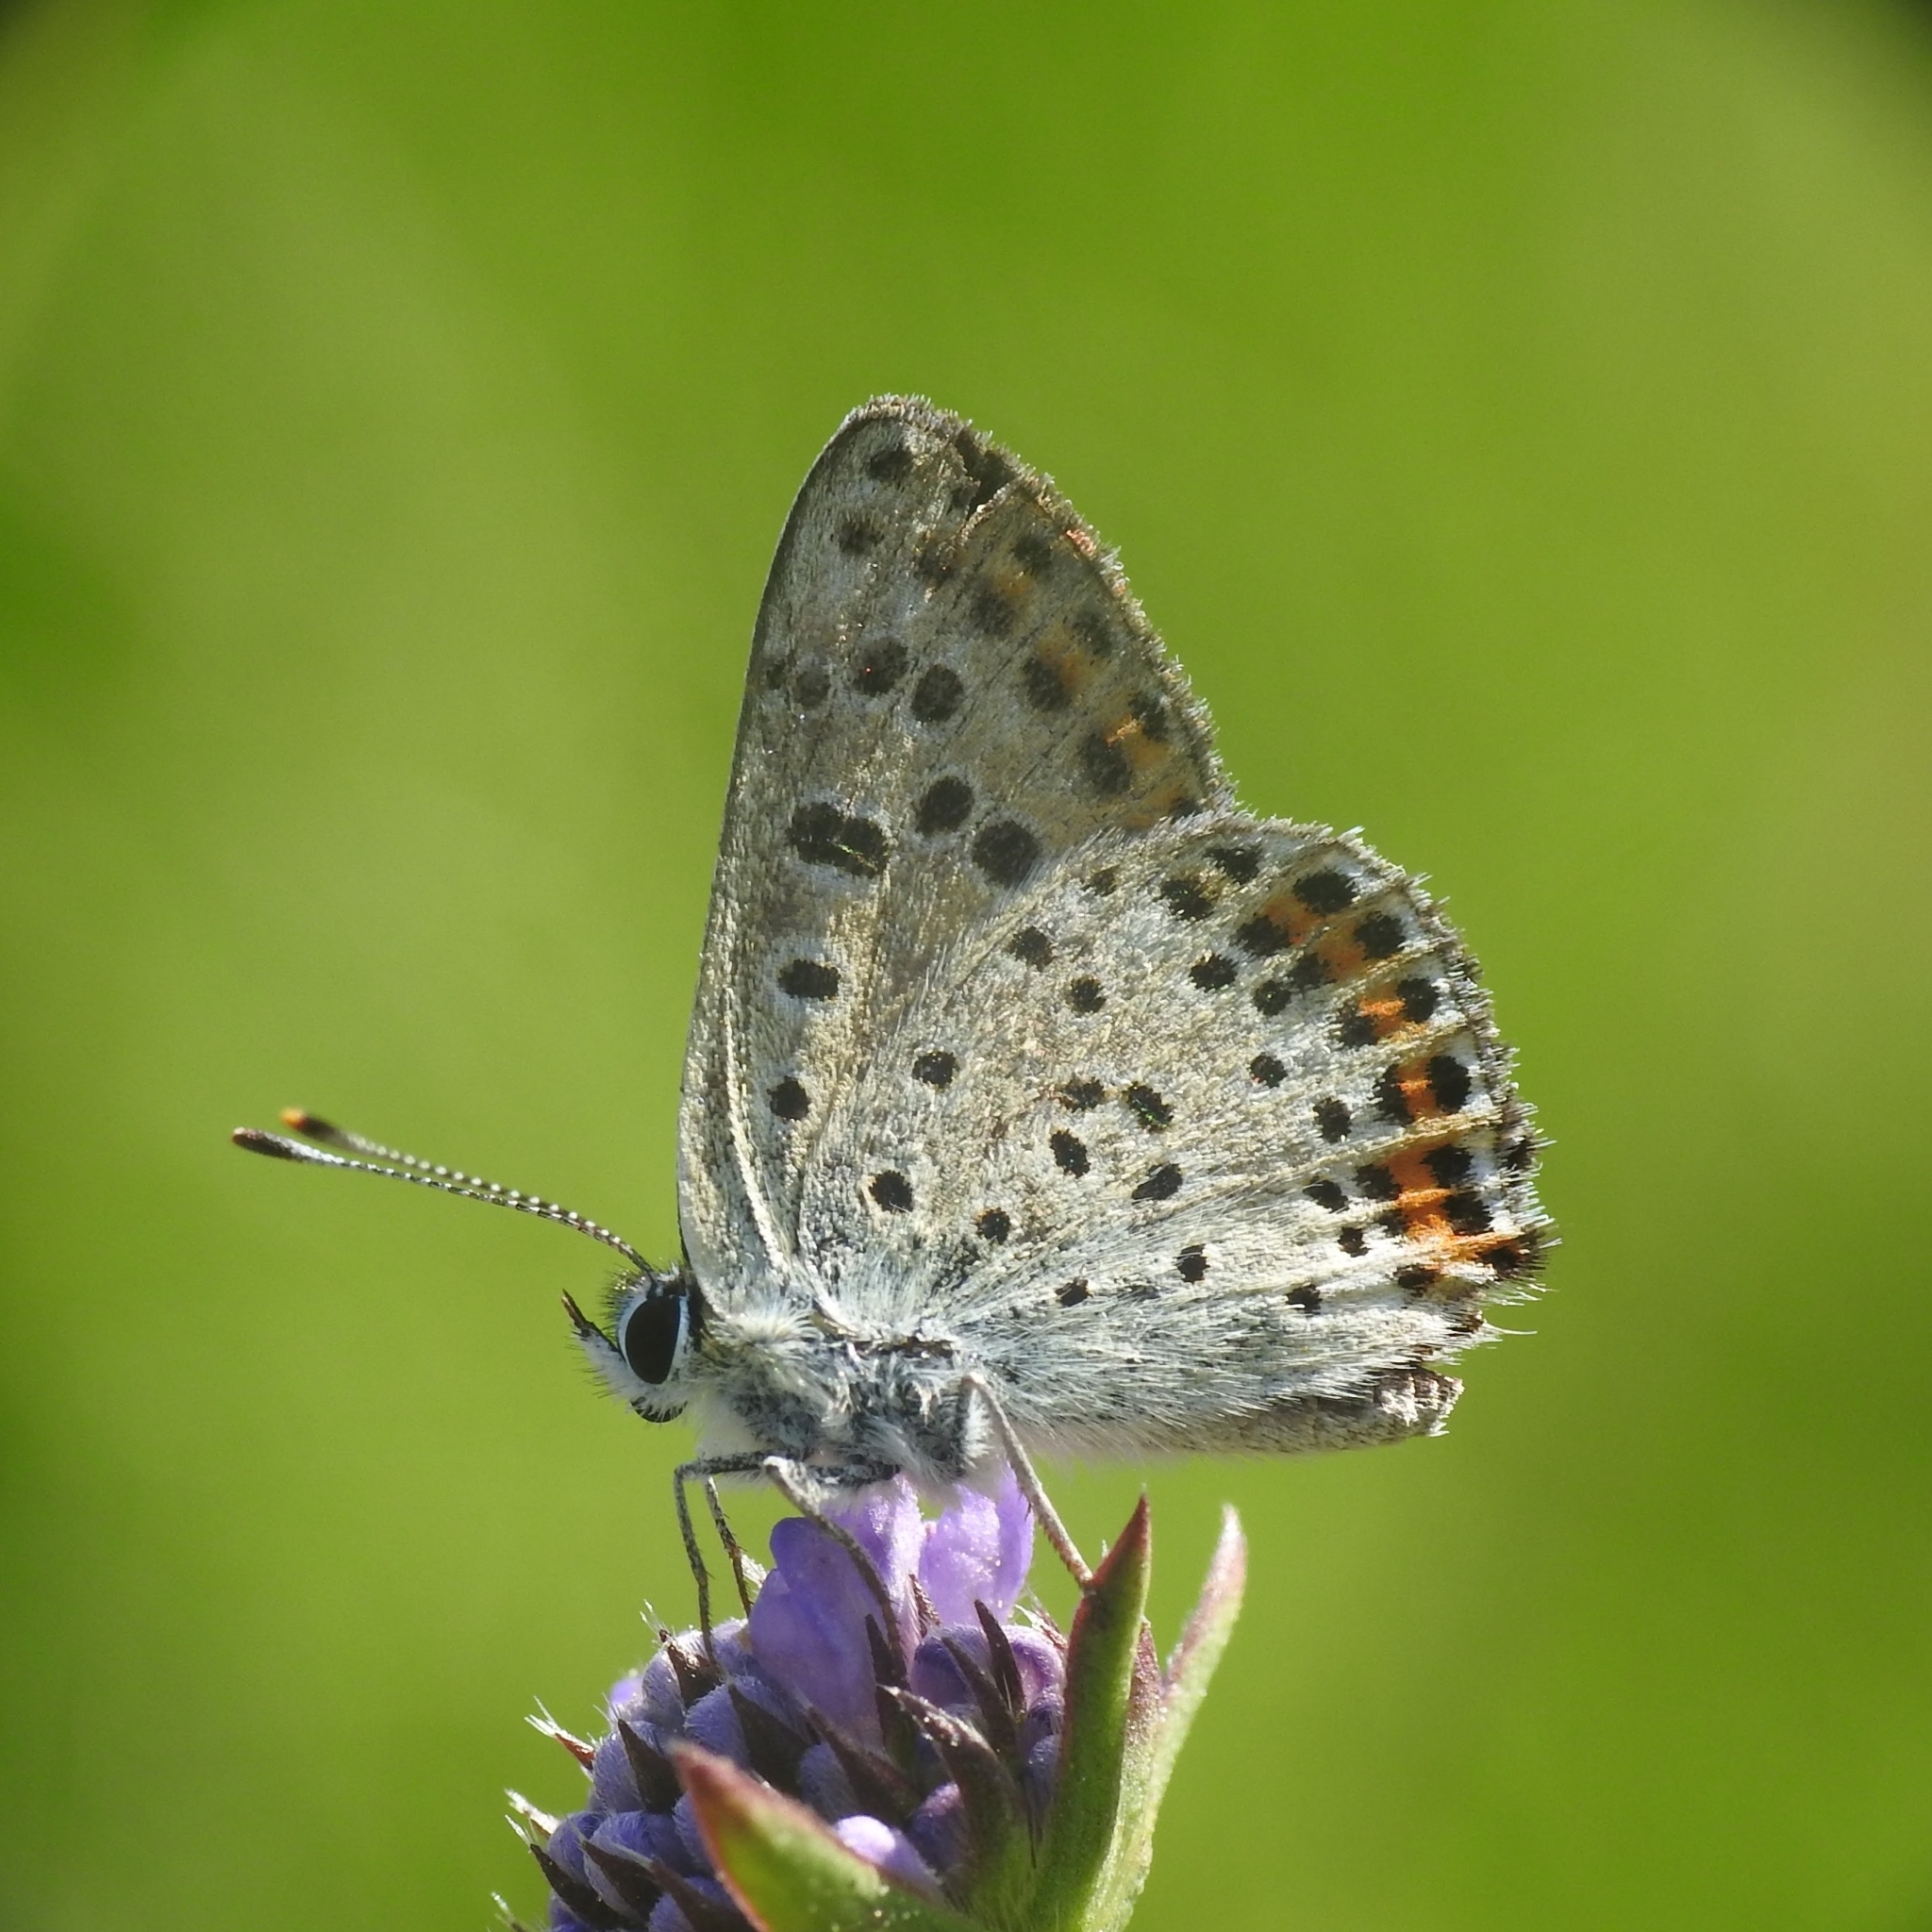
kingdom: Animalia
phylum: Arthropoda
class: Insecta
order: Lepidoptera
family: Lycaenidae
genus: Loweia
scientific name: Loweia tityrus
